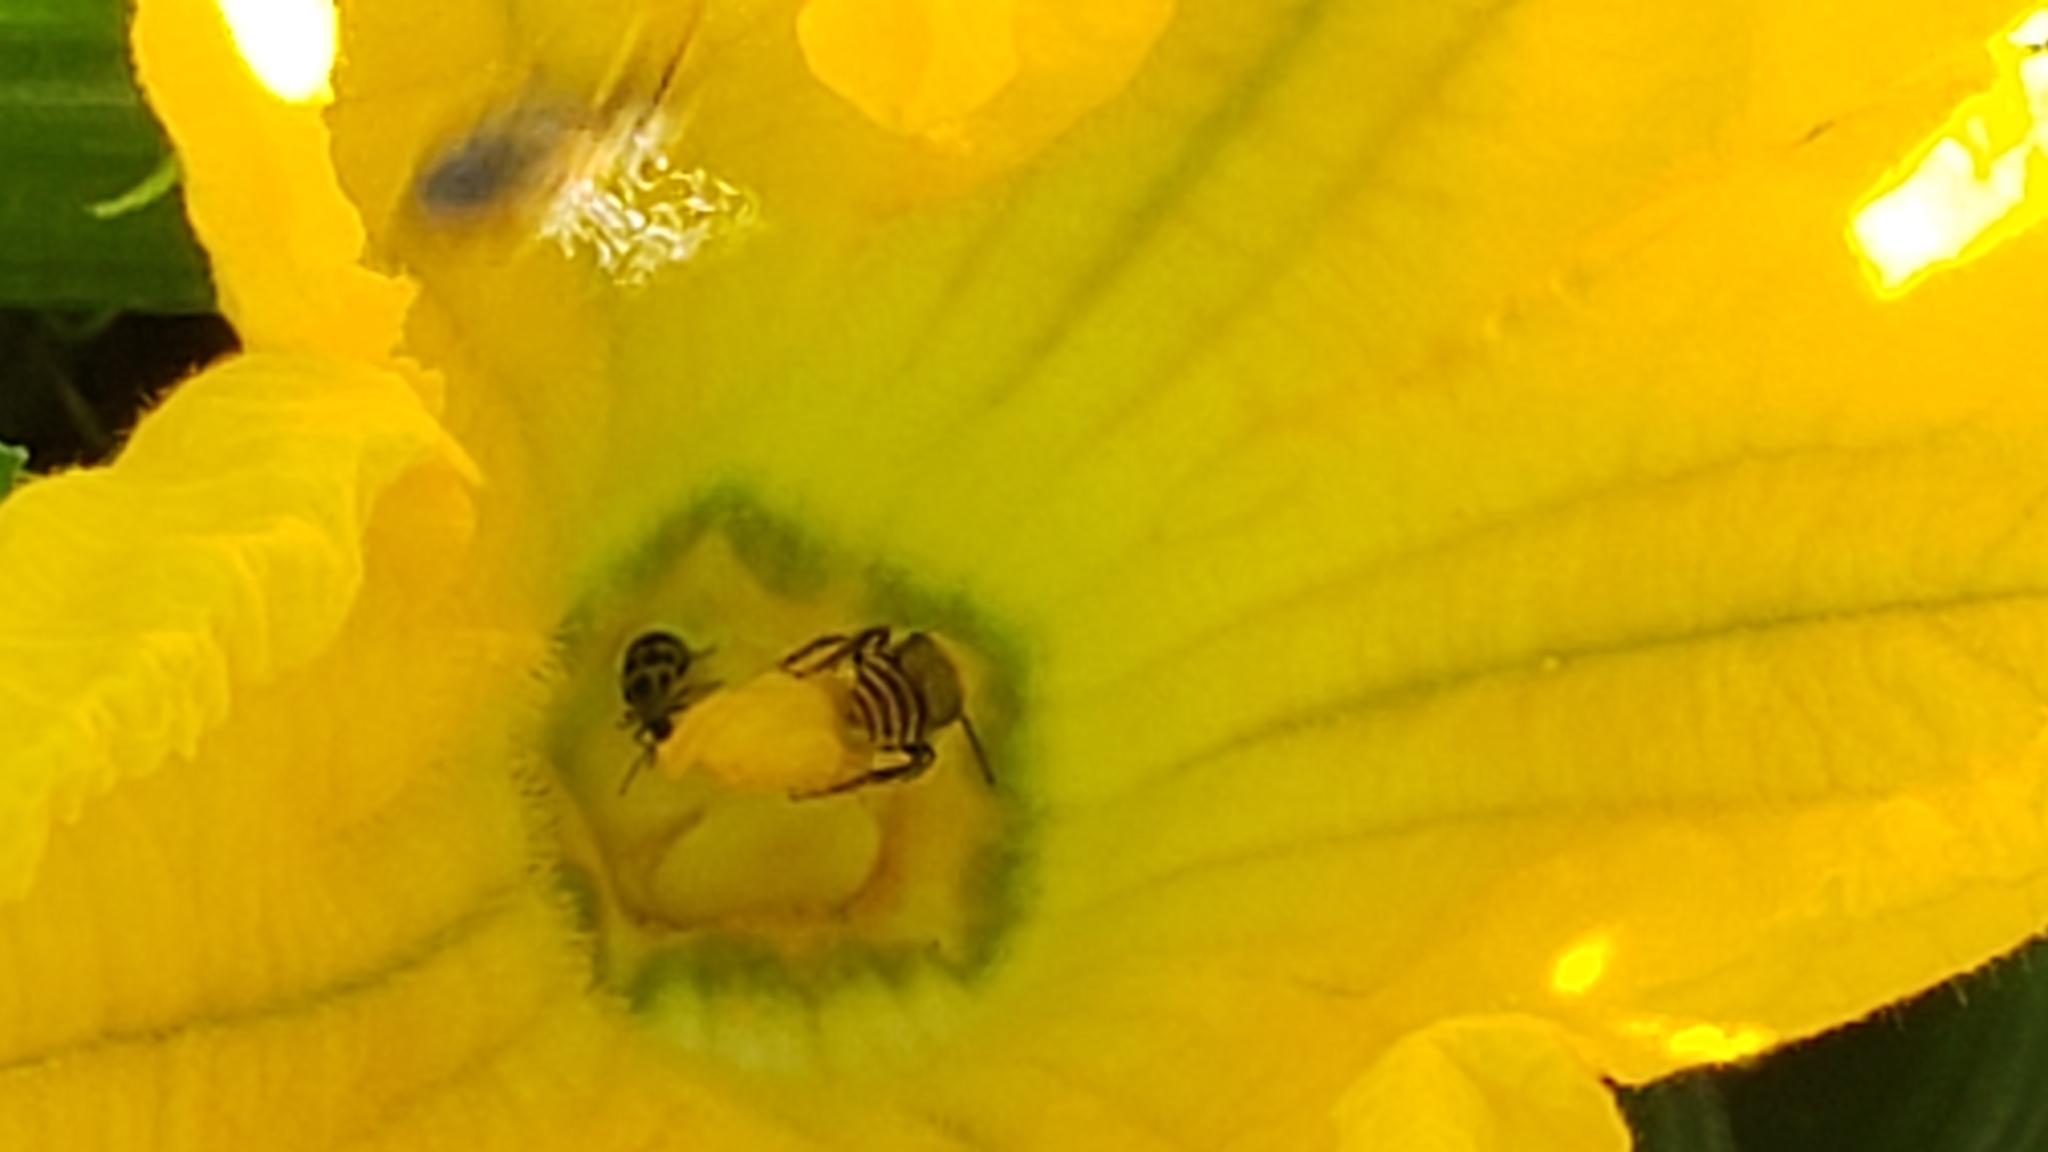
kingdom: Animalia
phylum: Arthropoda
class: Insecta
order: Hymenoptera
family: Apidae
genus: Peponapis
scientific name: Peponapis pruinosa
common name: Pruinose squash bee
